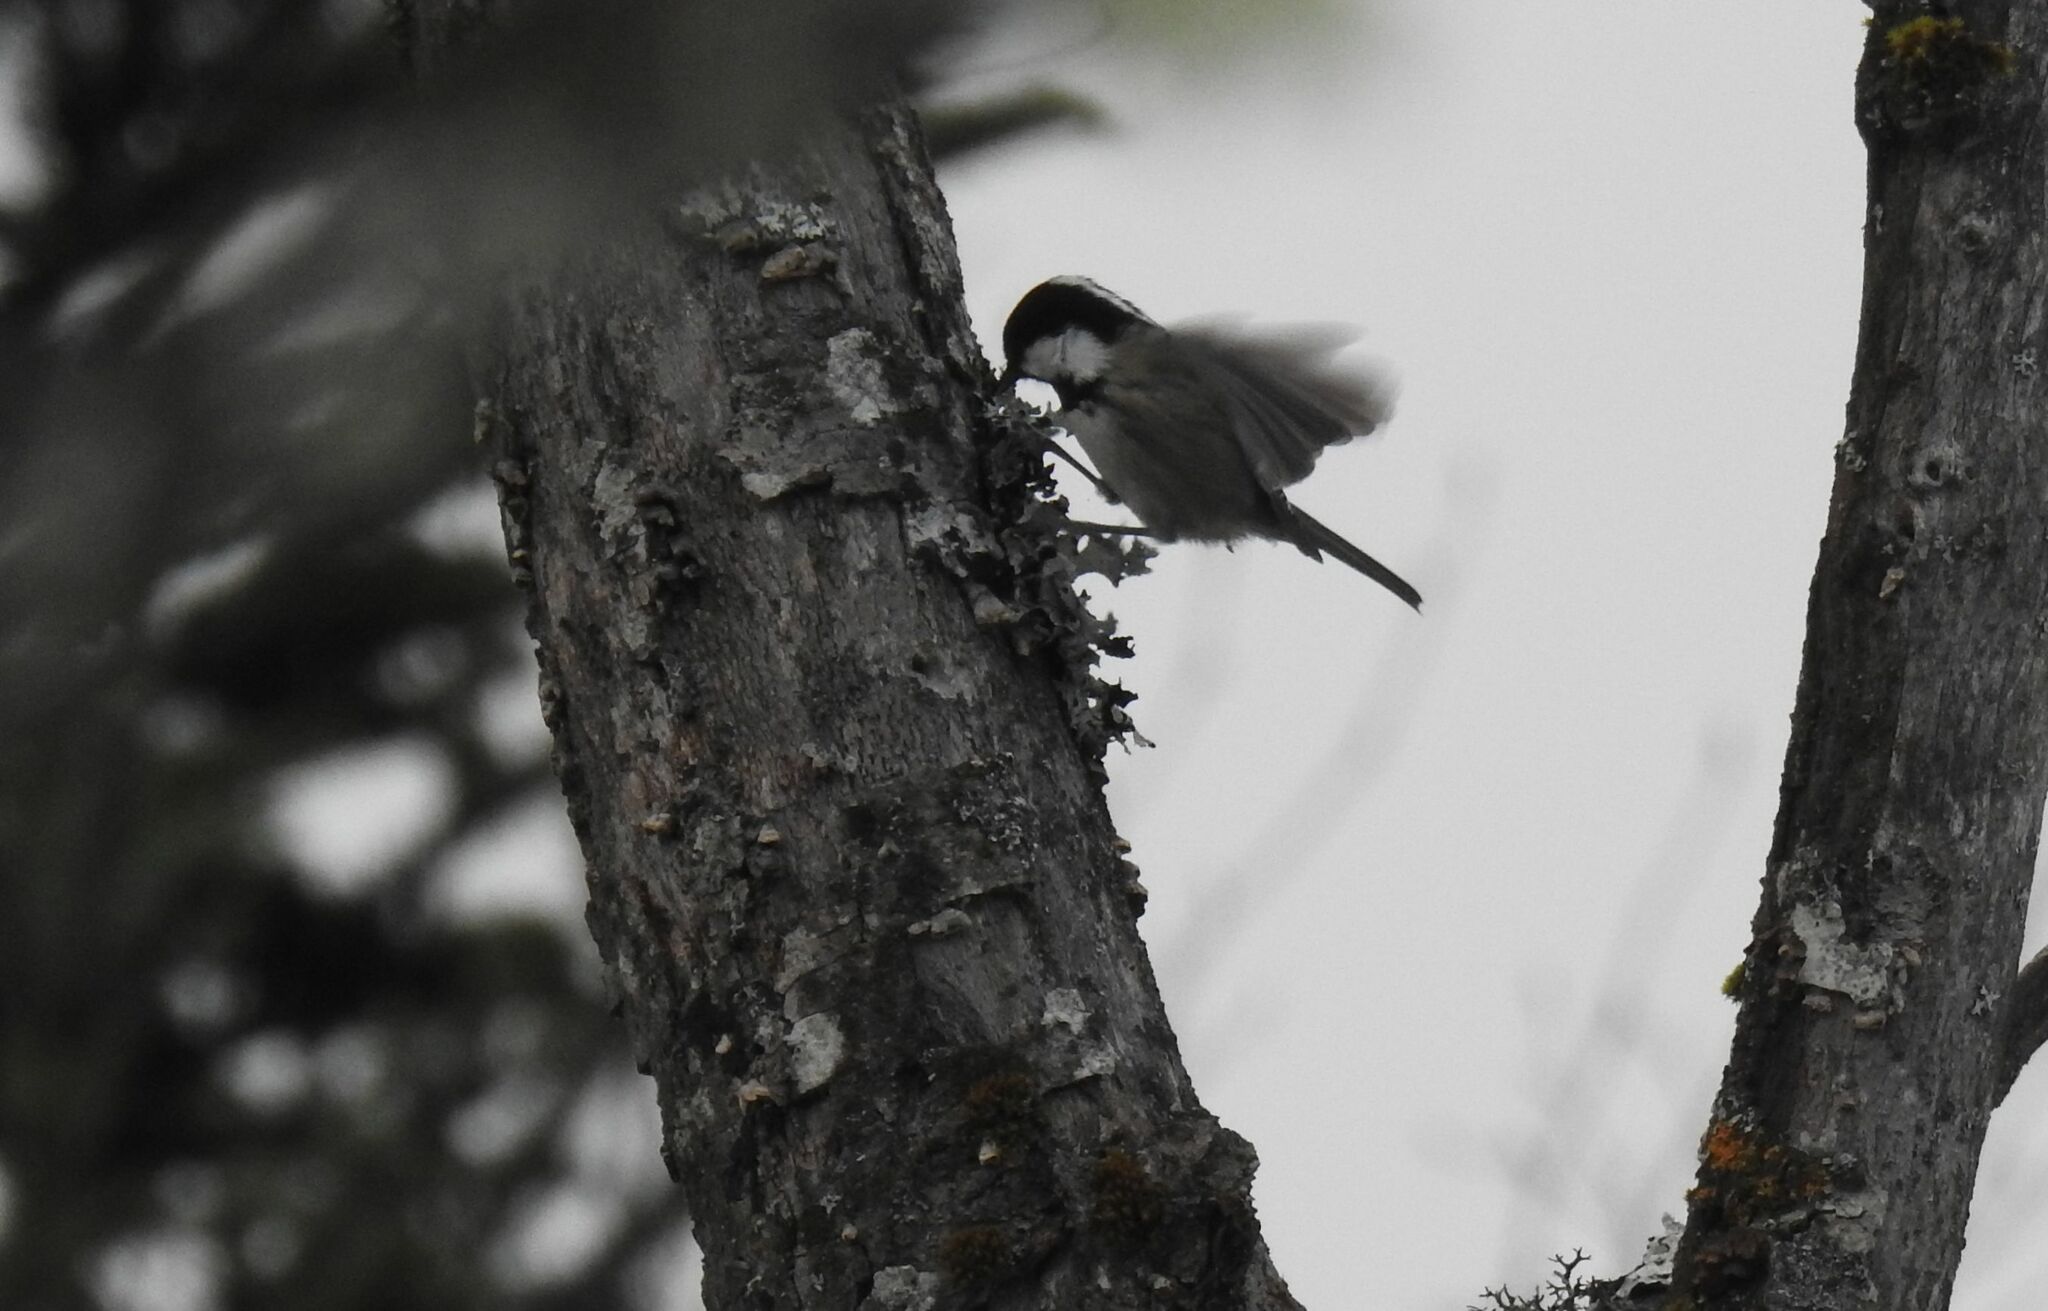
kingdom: Animalia
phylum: Chordata
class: Aves
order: Passeriformes
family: Paridae
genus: Periparus
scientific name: Periparus ater
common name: Coal tit
